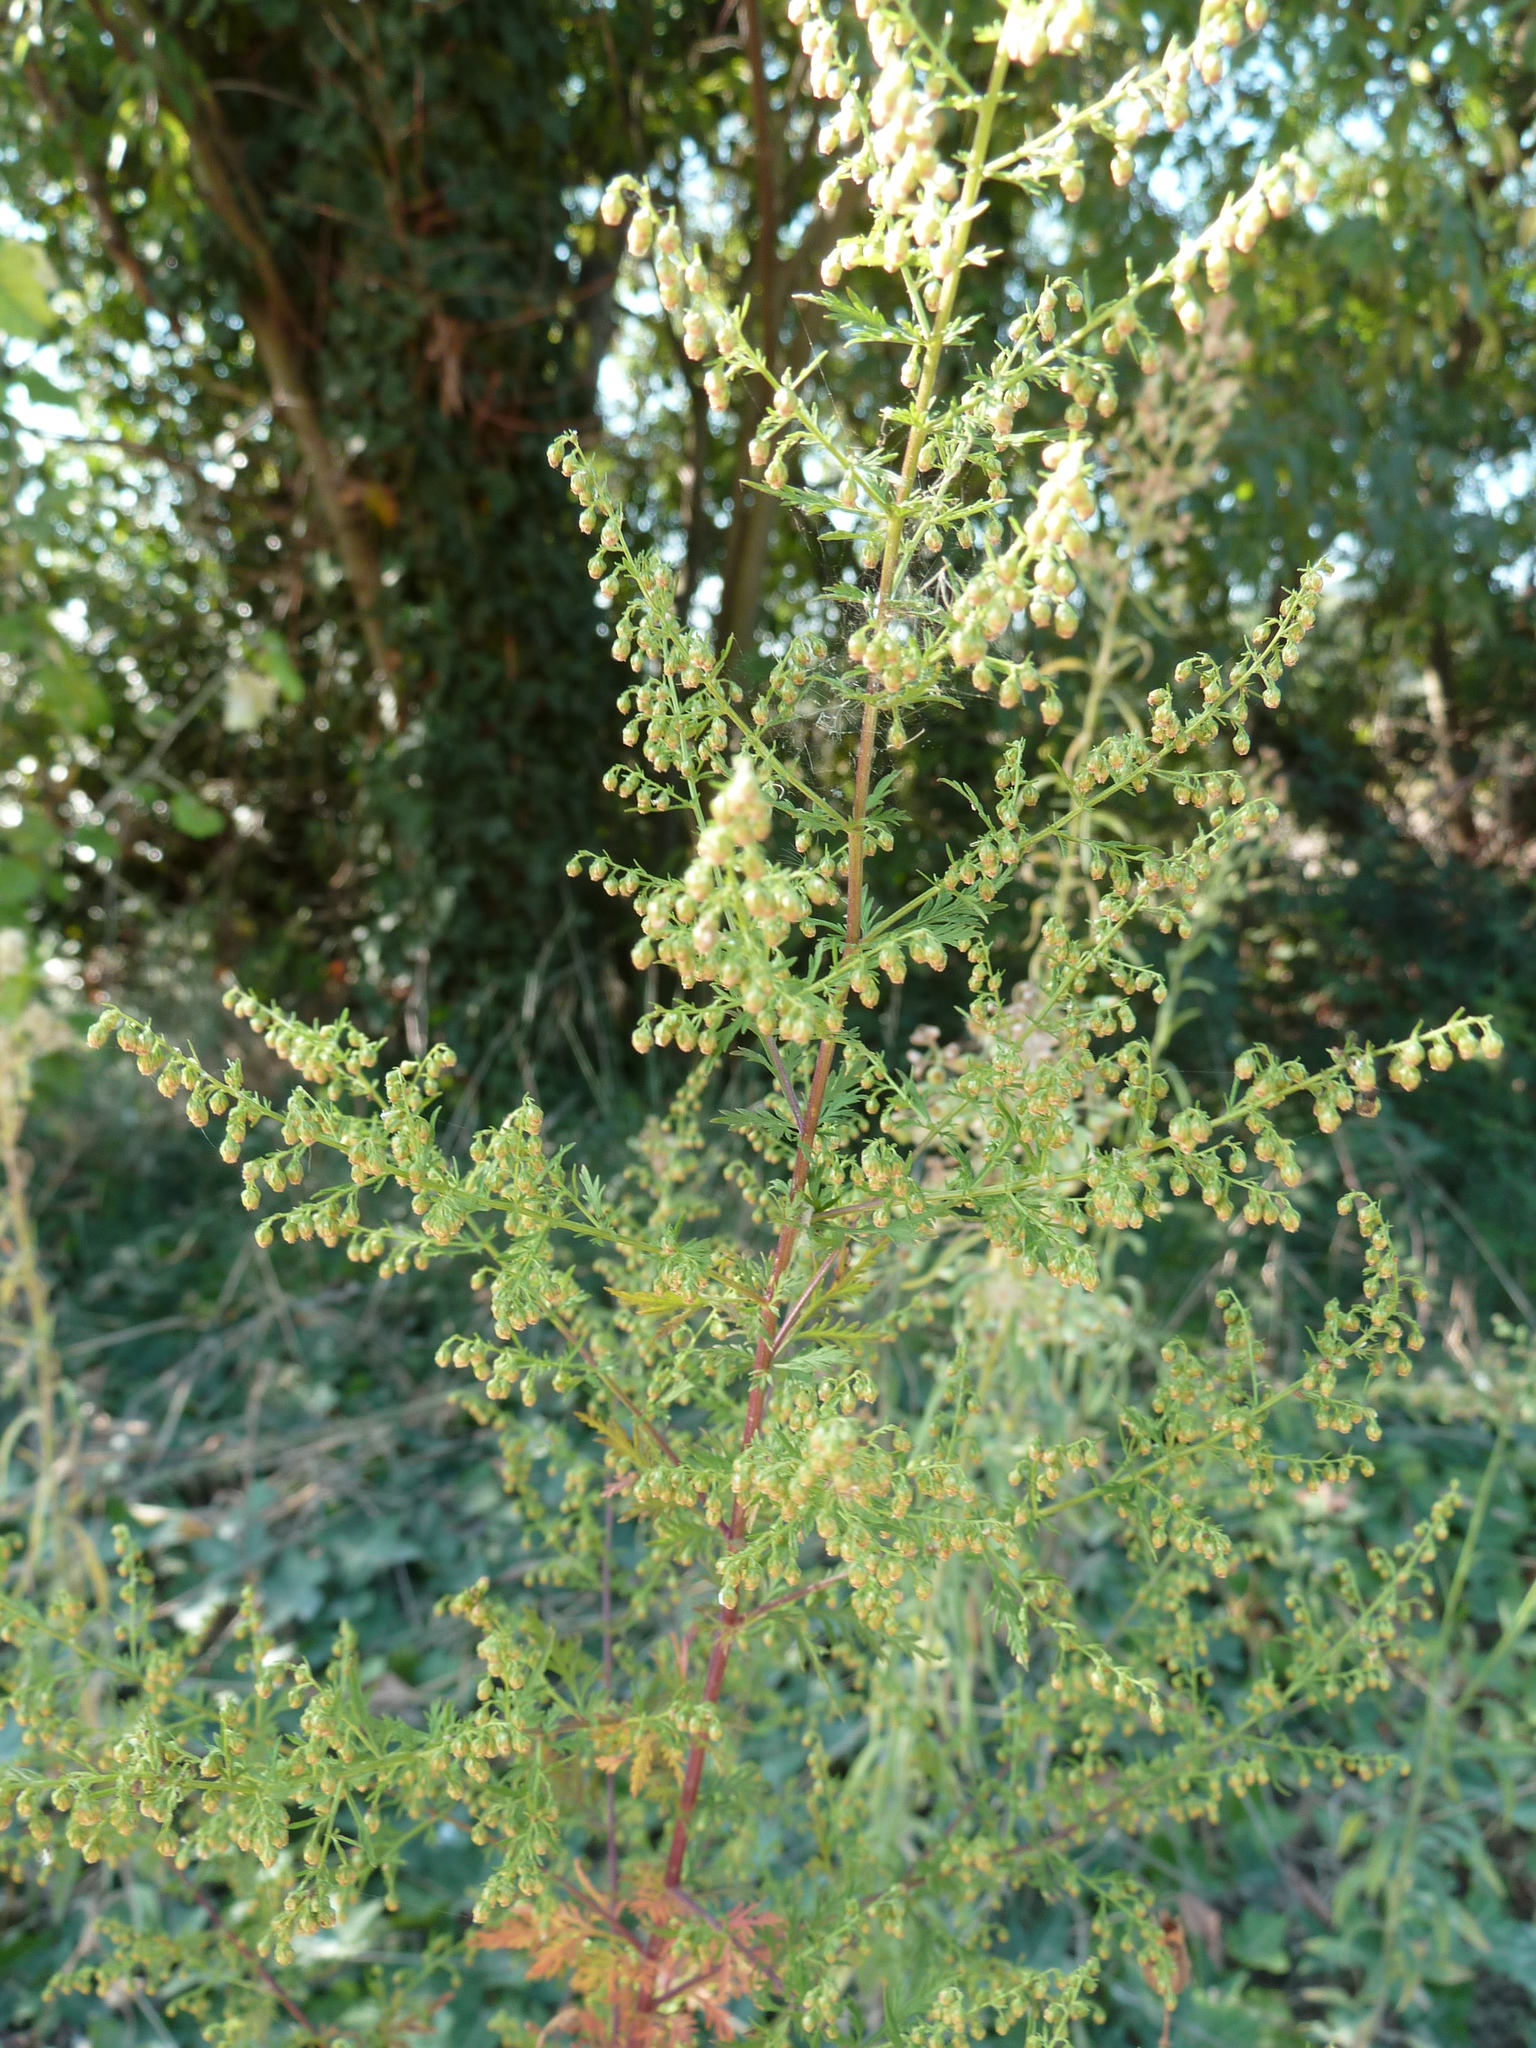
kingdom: Plantae
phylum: Tracheophyta
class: Magnoliopsida
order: Asterales
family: Asteraceae
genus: Artemisia
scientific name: Artemisia annua
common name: Sweet sagewort
